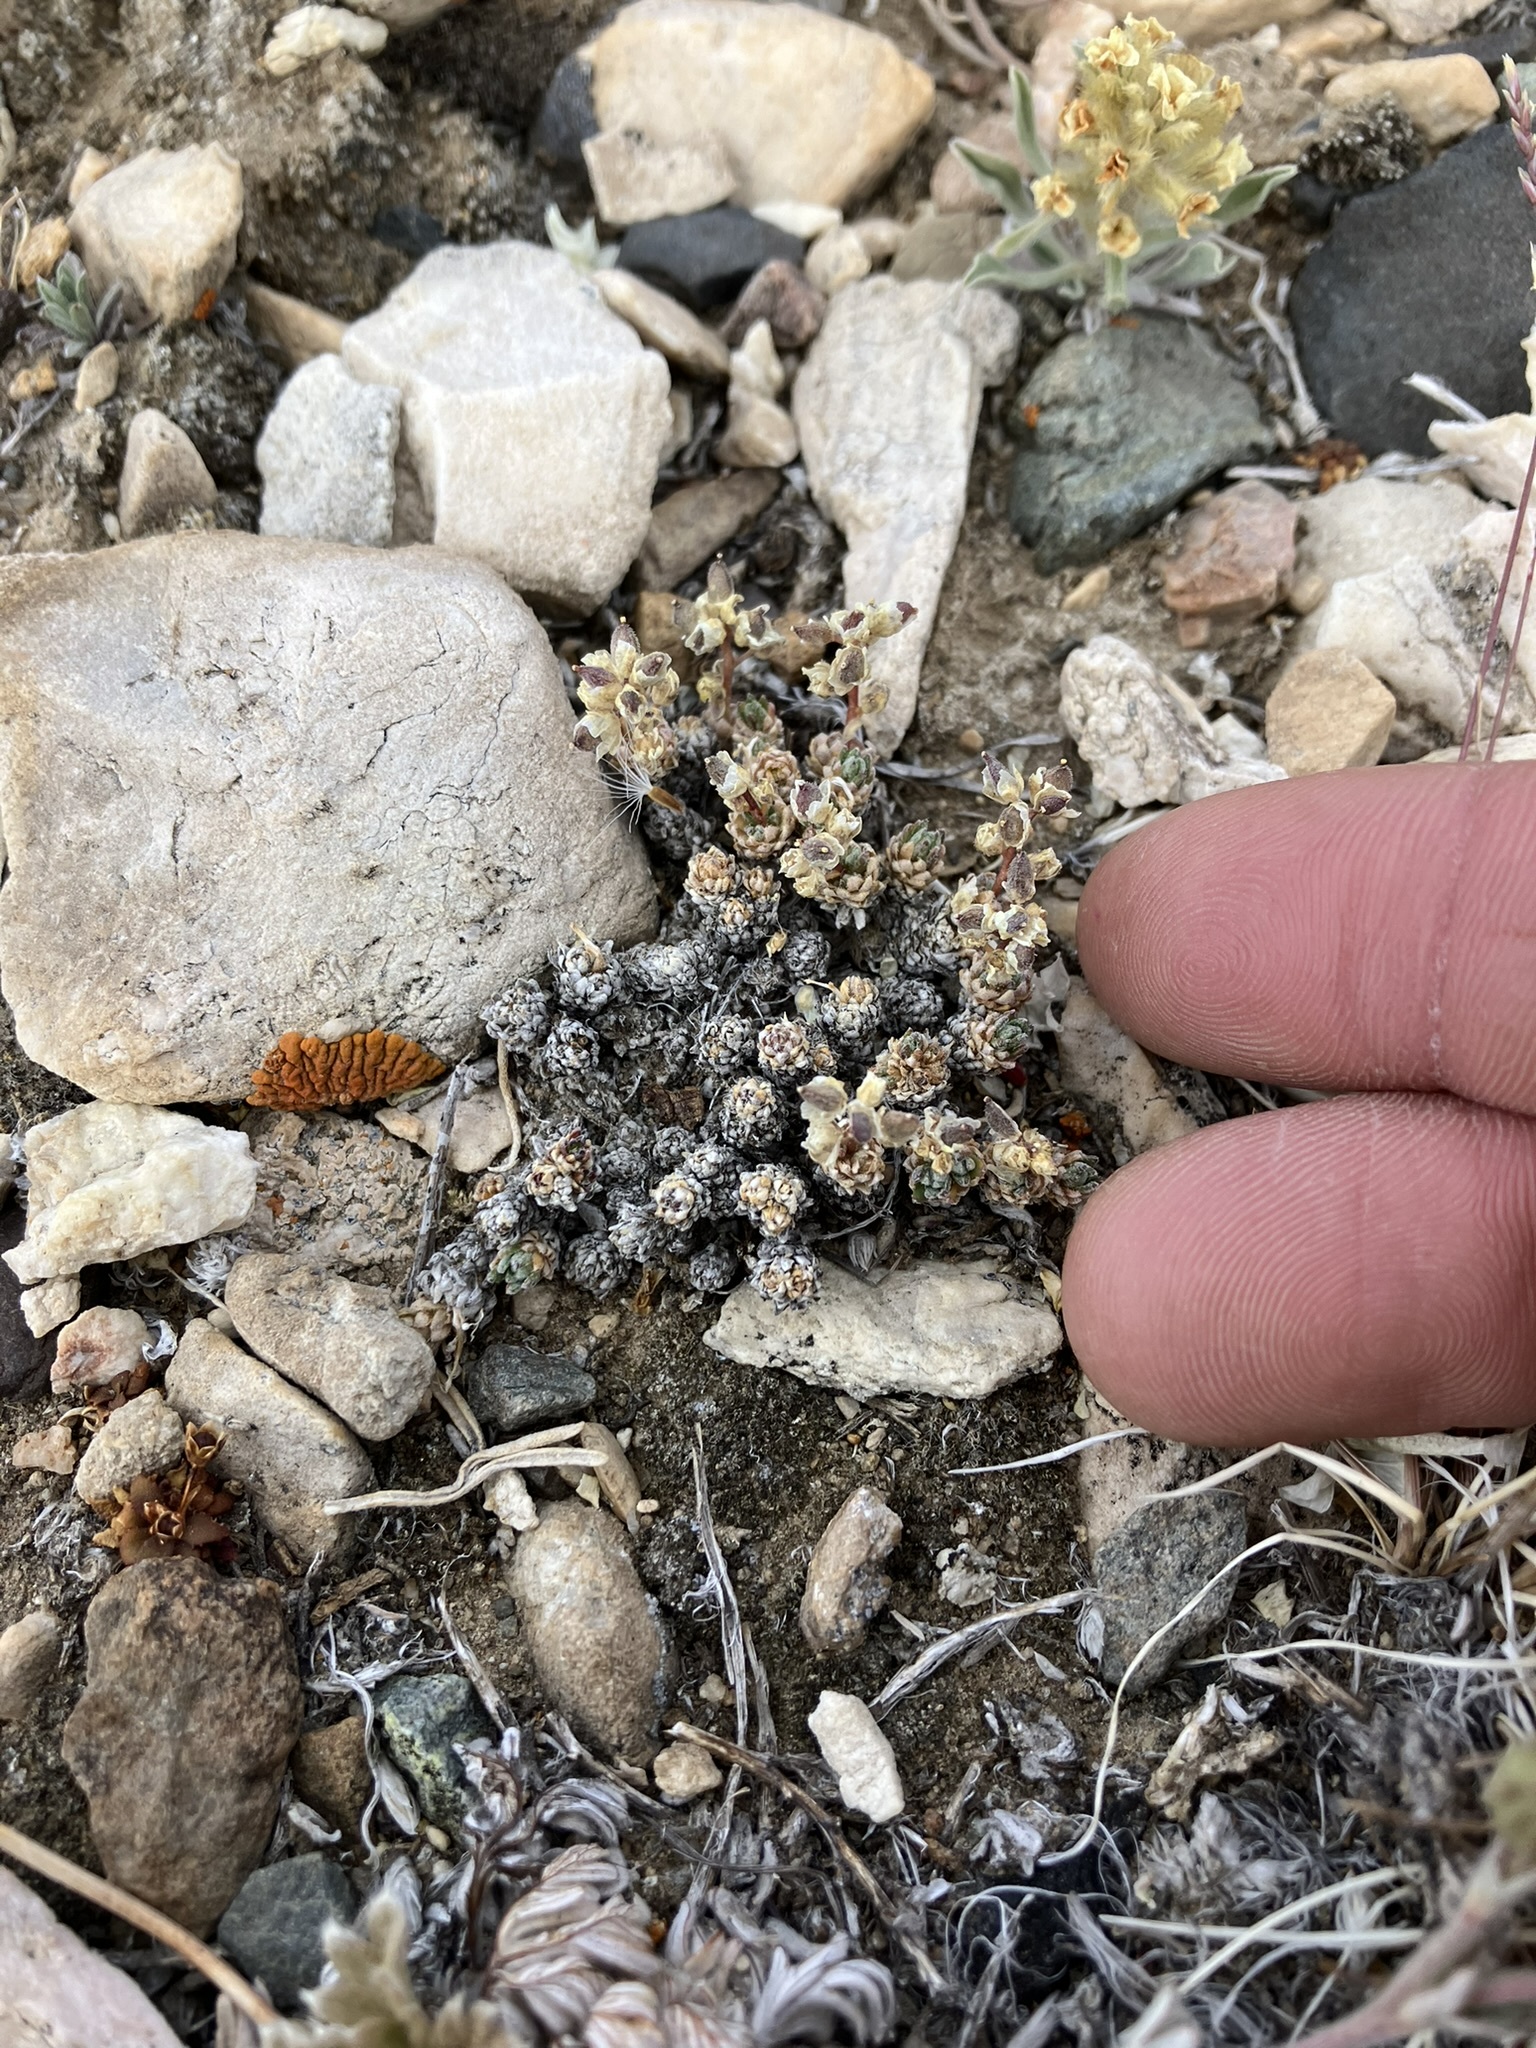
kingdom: Plantae
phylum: Tracheophyta
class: Magnoliopsida
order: Brassicales
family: Brassicaceae
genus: Draba
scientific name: Draba oligosperma
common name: Few-seed draba
